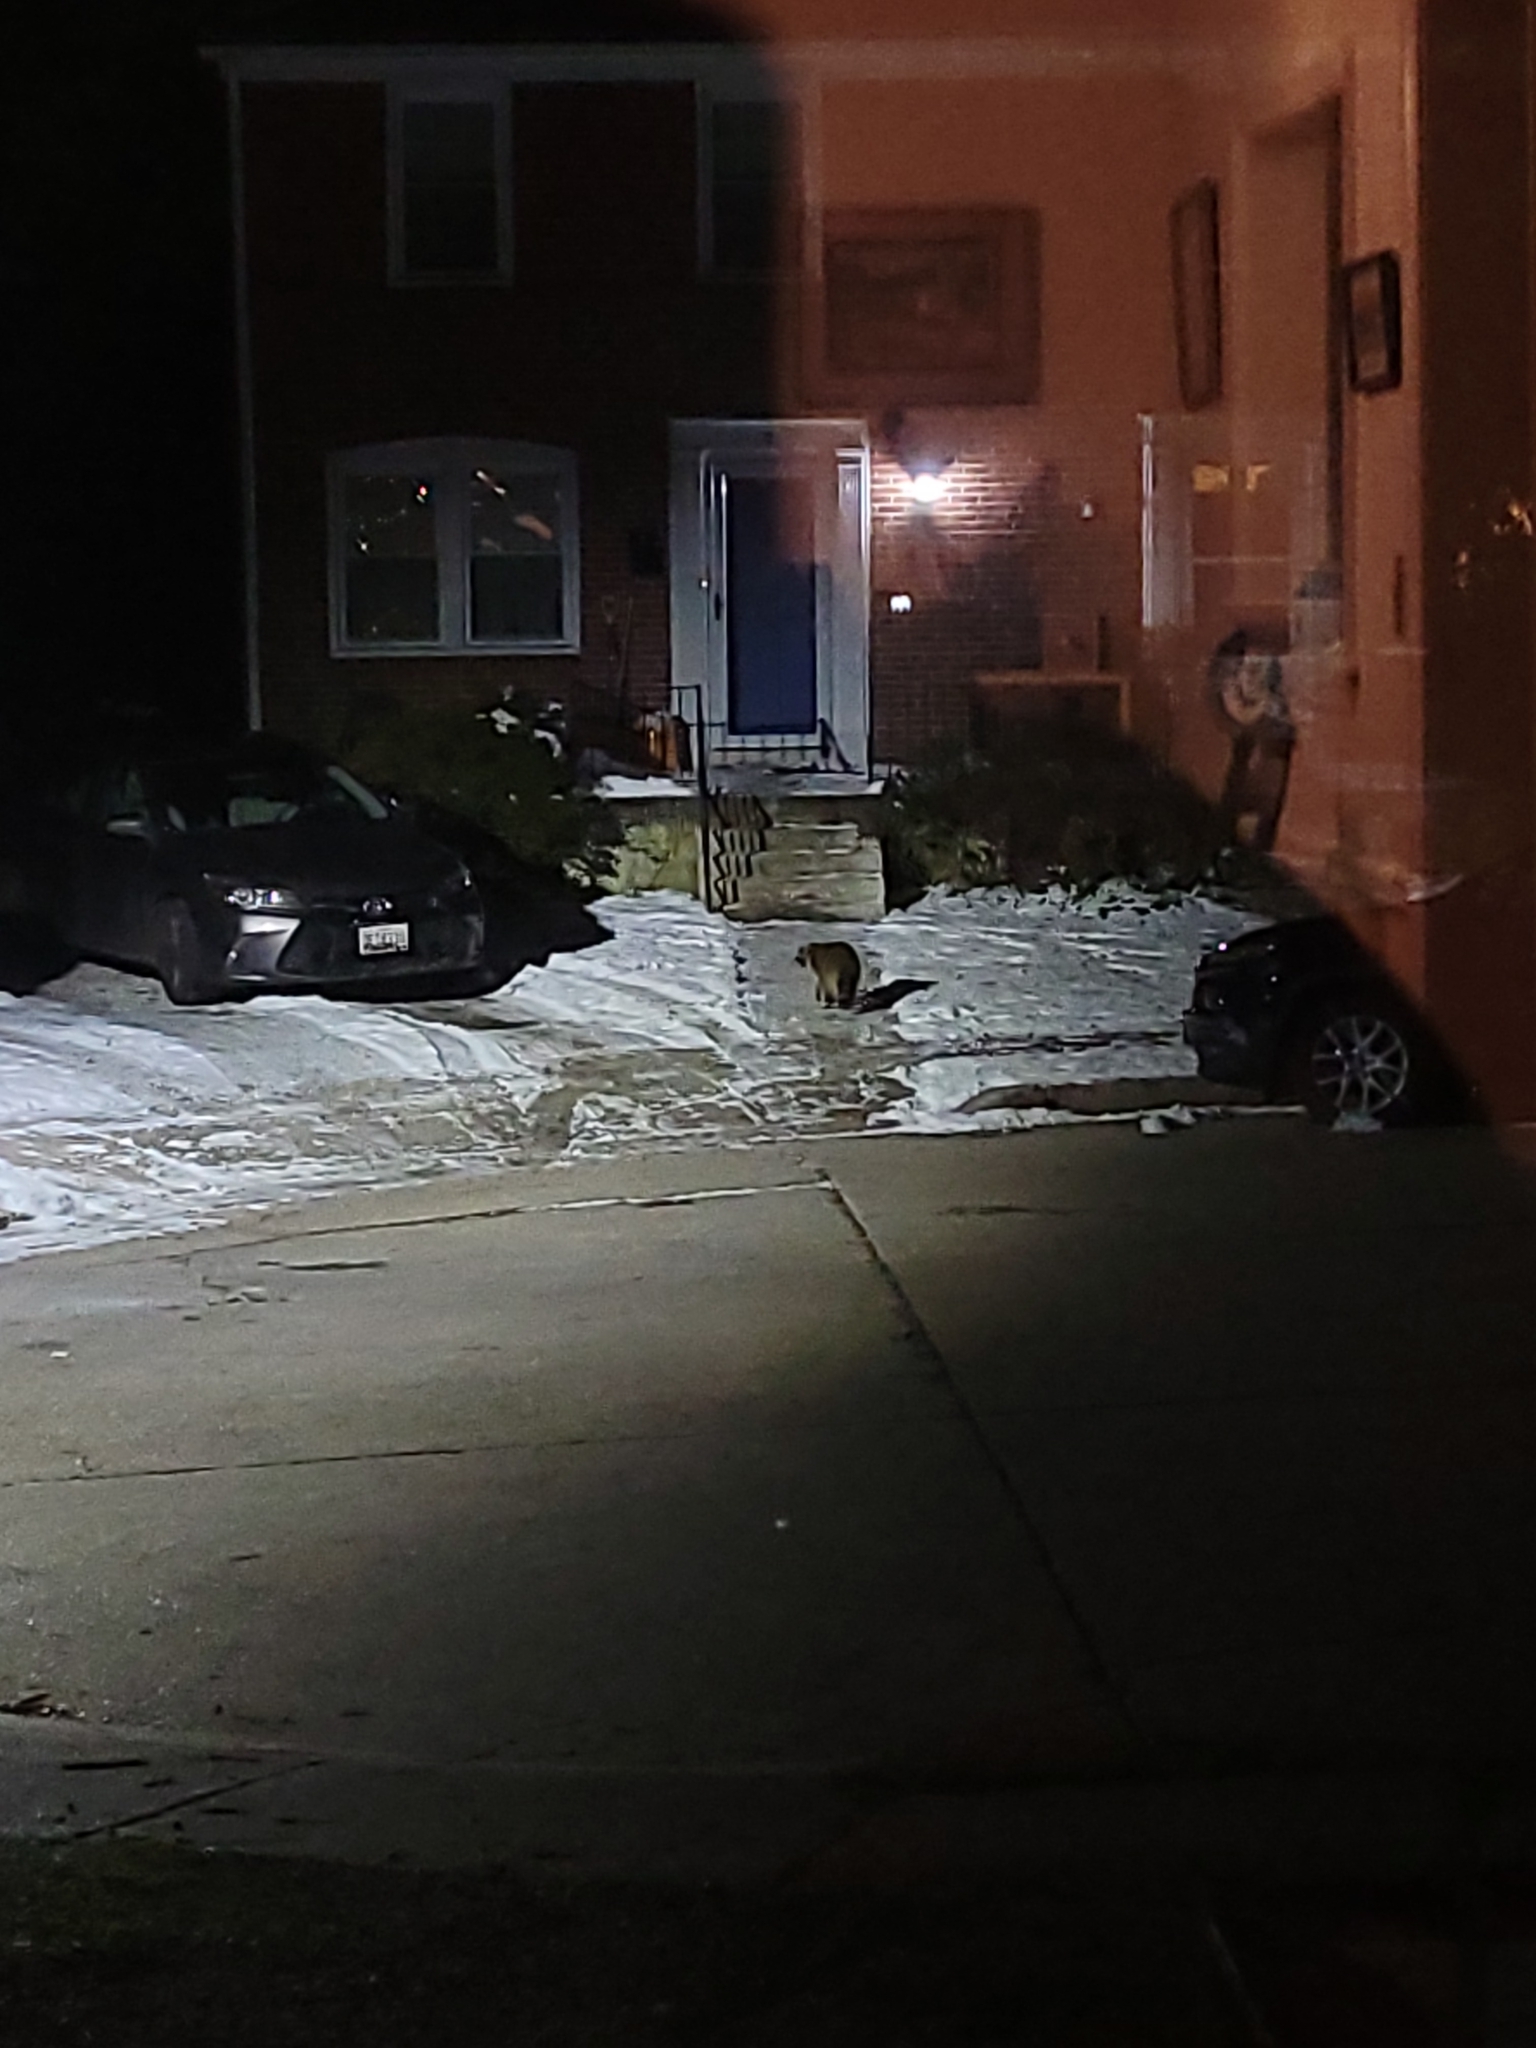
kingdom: Animalia
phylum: Chordata
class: Mammalia
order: Carnivora
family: Procyonidae
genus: Procyon
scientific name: Procyon lotor
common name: Raccoon
